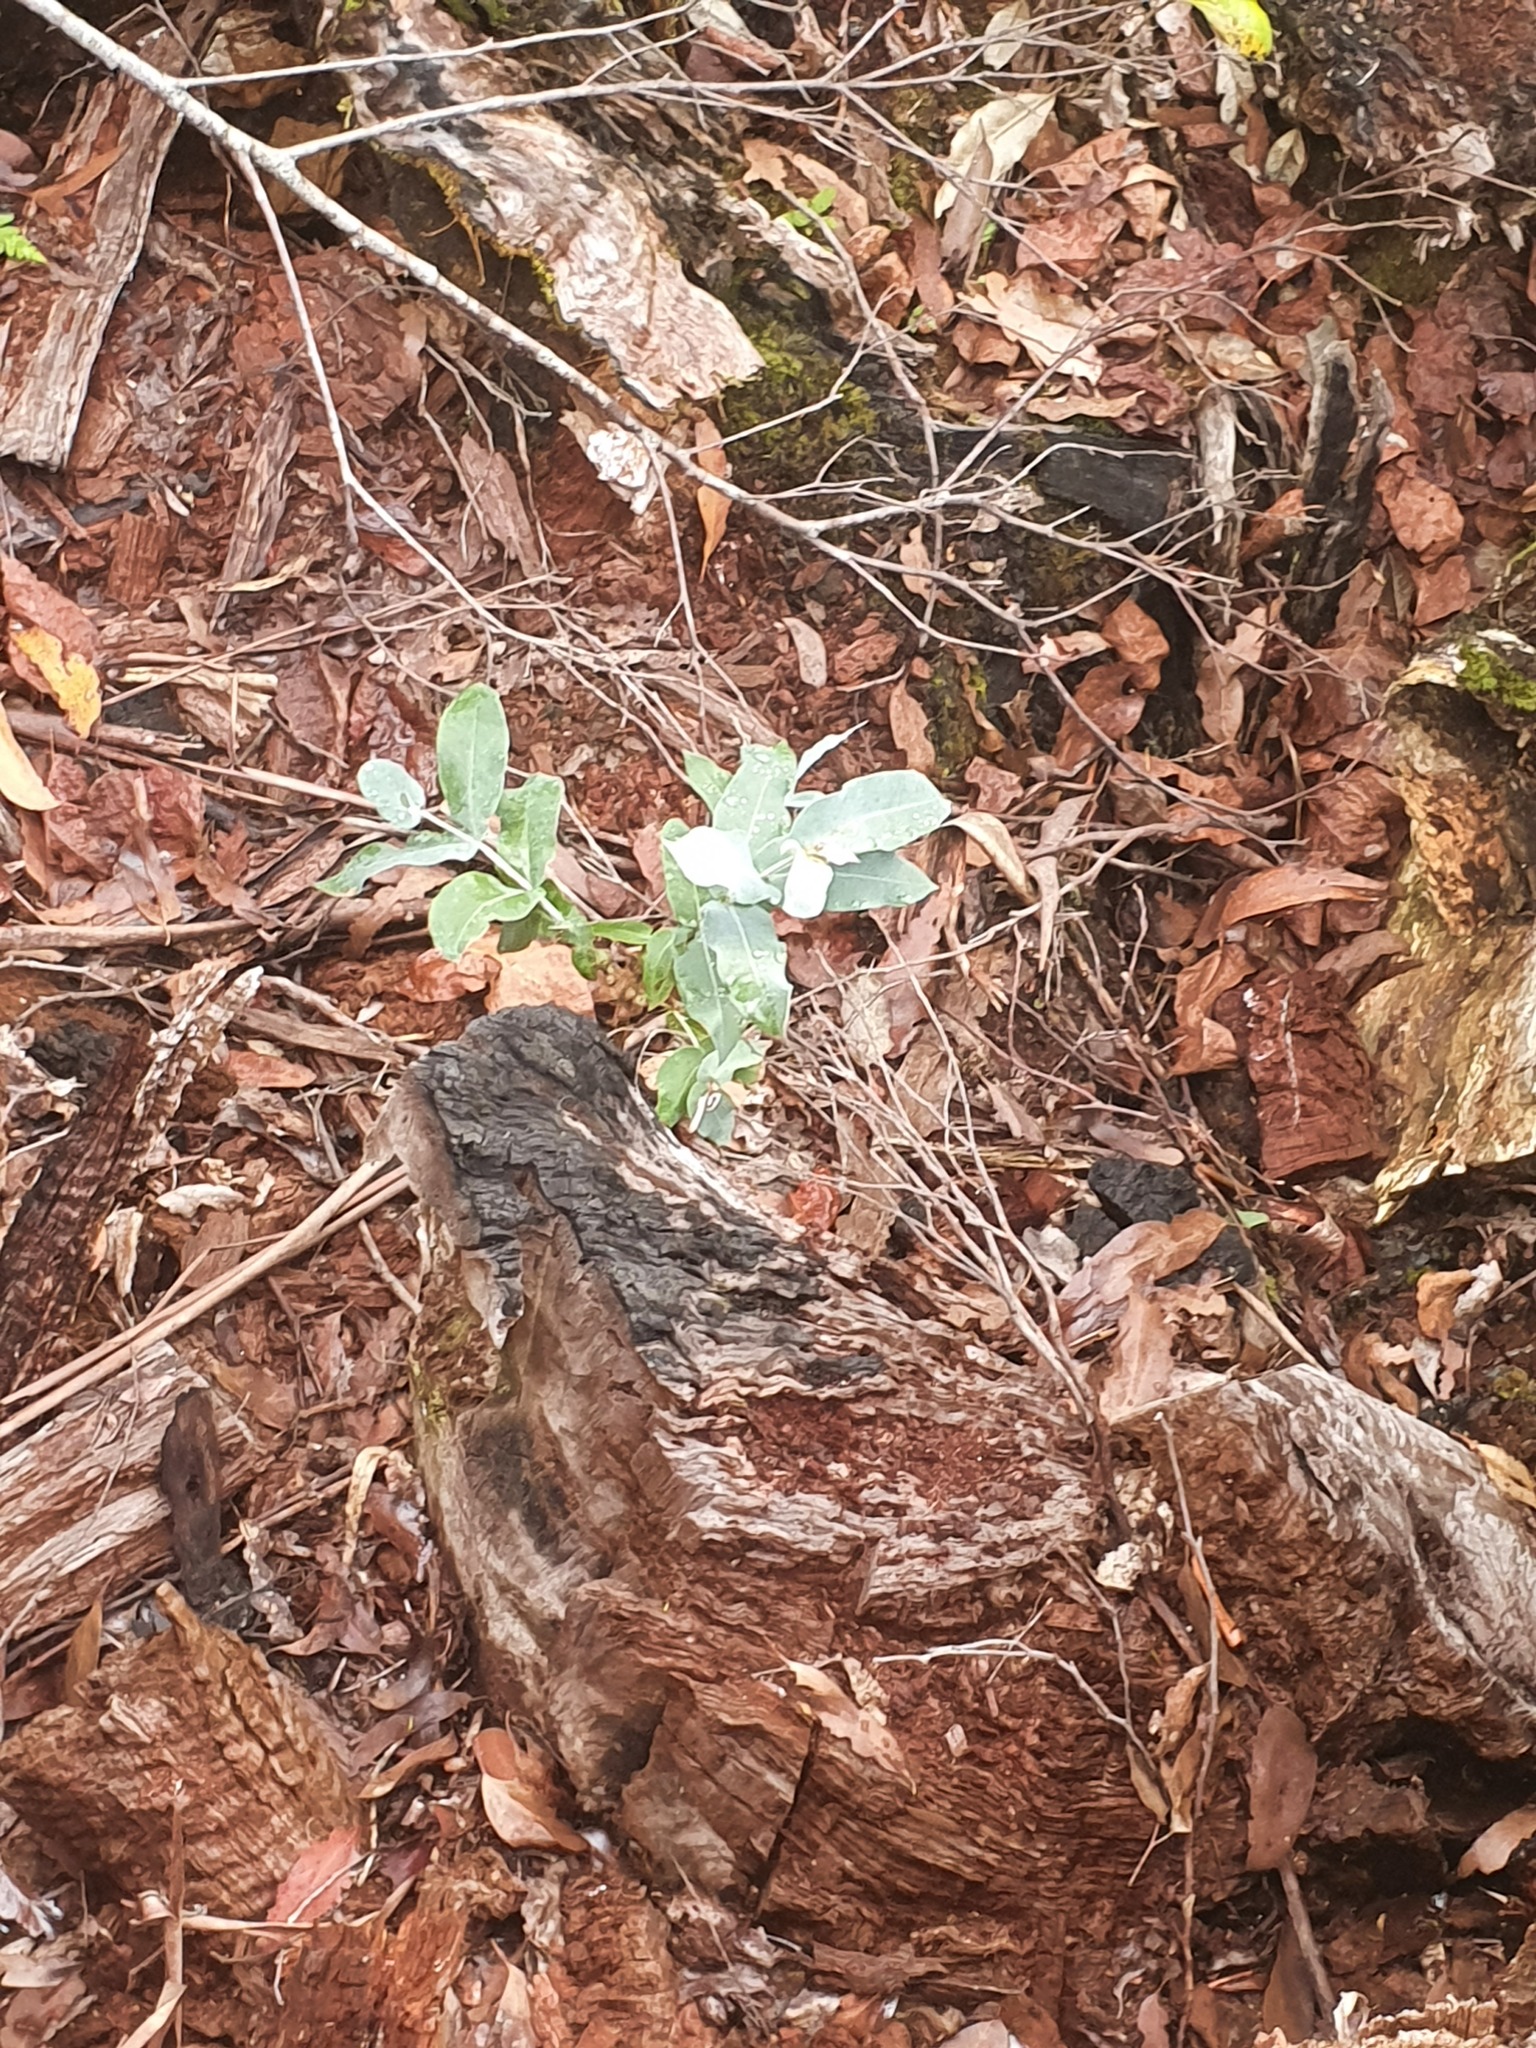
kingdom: Plantae
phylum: Tracheophyta
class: Magnoliopsida
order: Myrtales
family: Myrtaceae
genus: Eucalyptus
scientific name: Eucalyptus globulus
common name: Southern blue-gum
